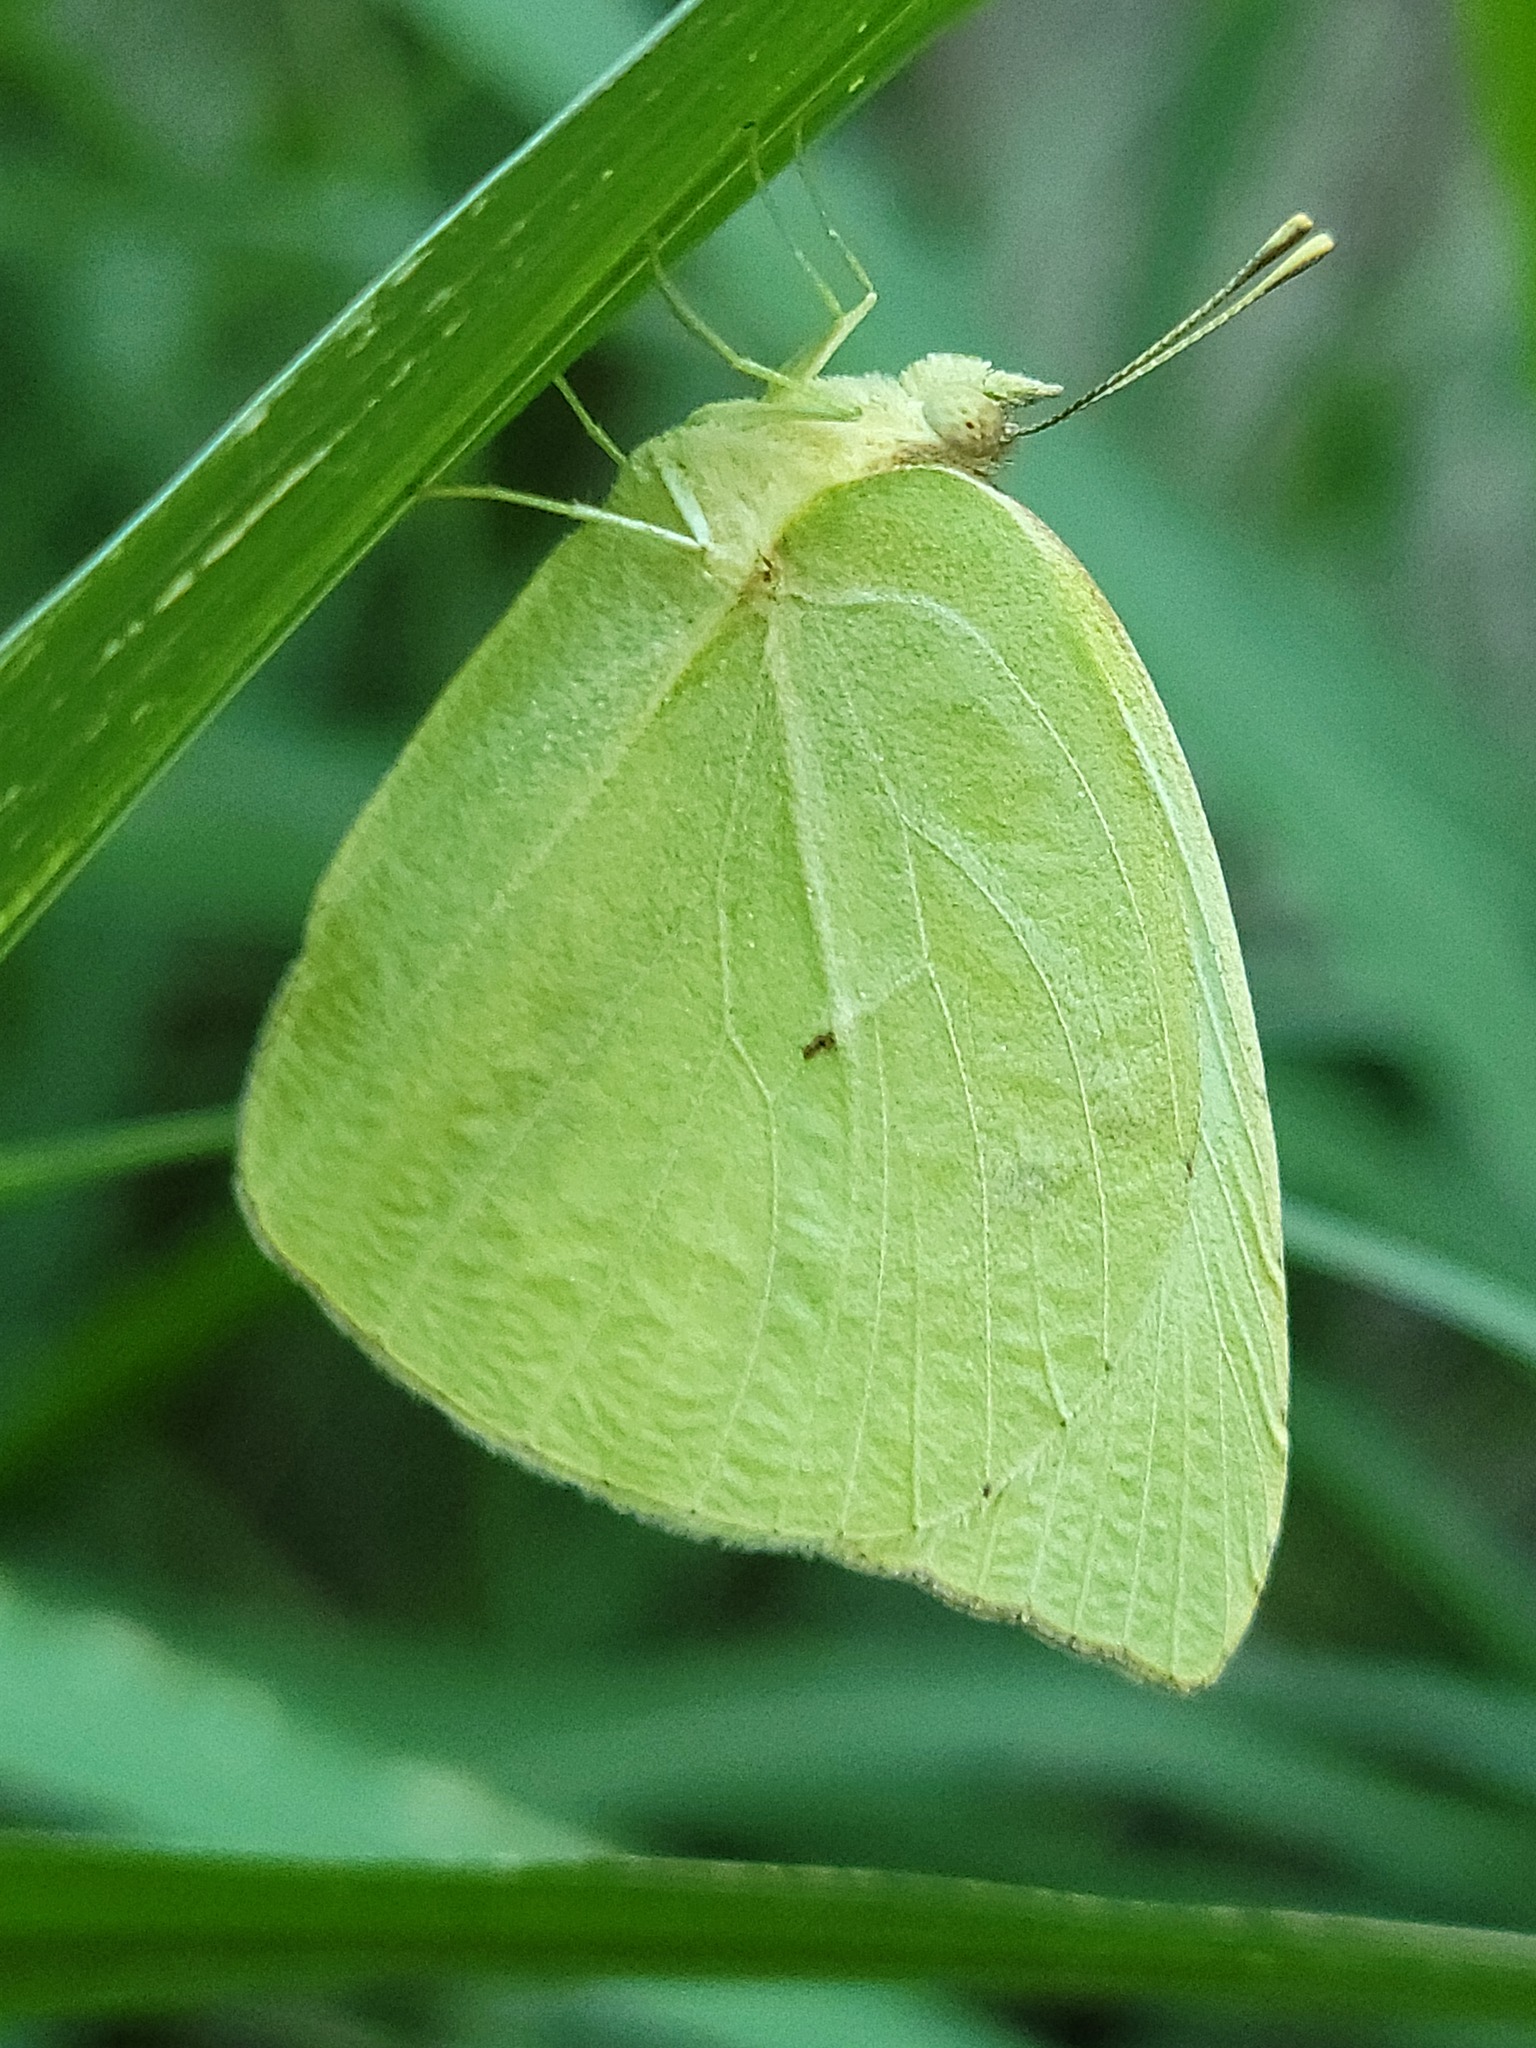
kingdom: Animalia
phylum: Arthropoda
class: Insecta
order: Lepidoptera
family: Pieridae
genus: Kricogonia
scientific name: Kricogonia lyside
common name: Guayacan sulphur,
